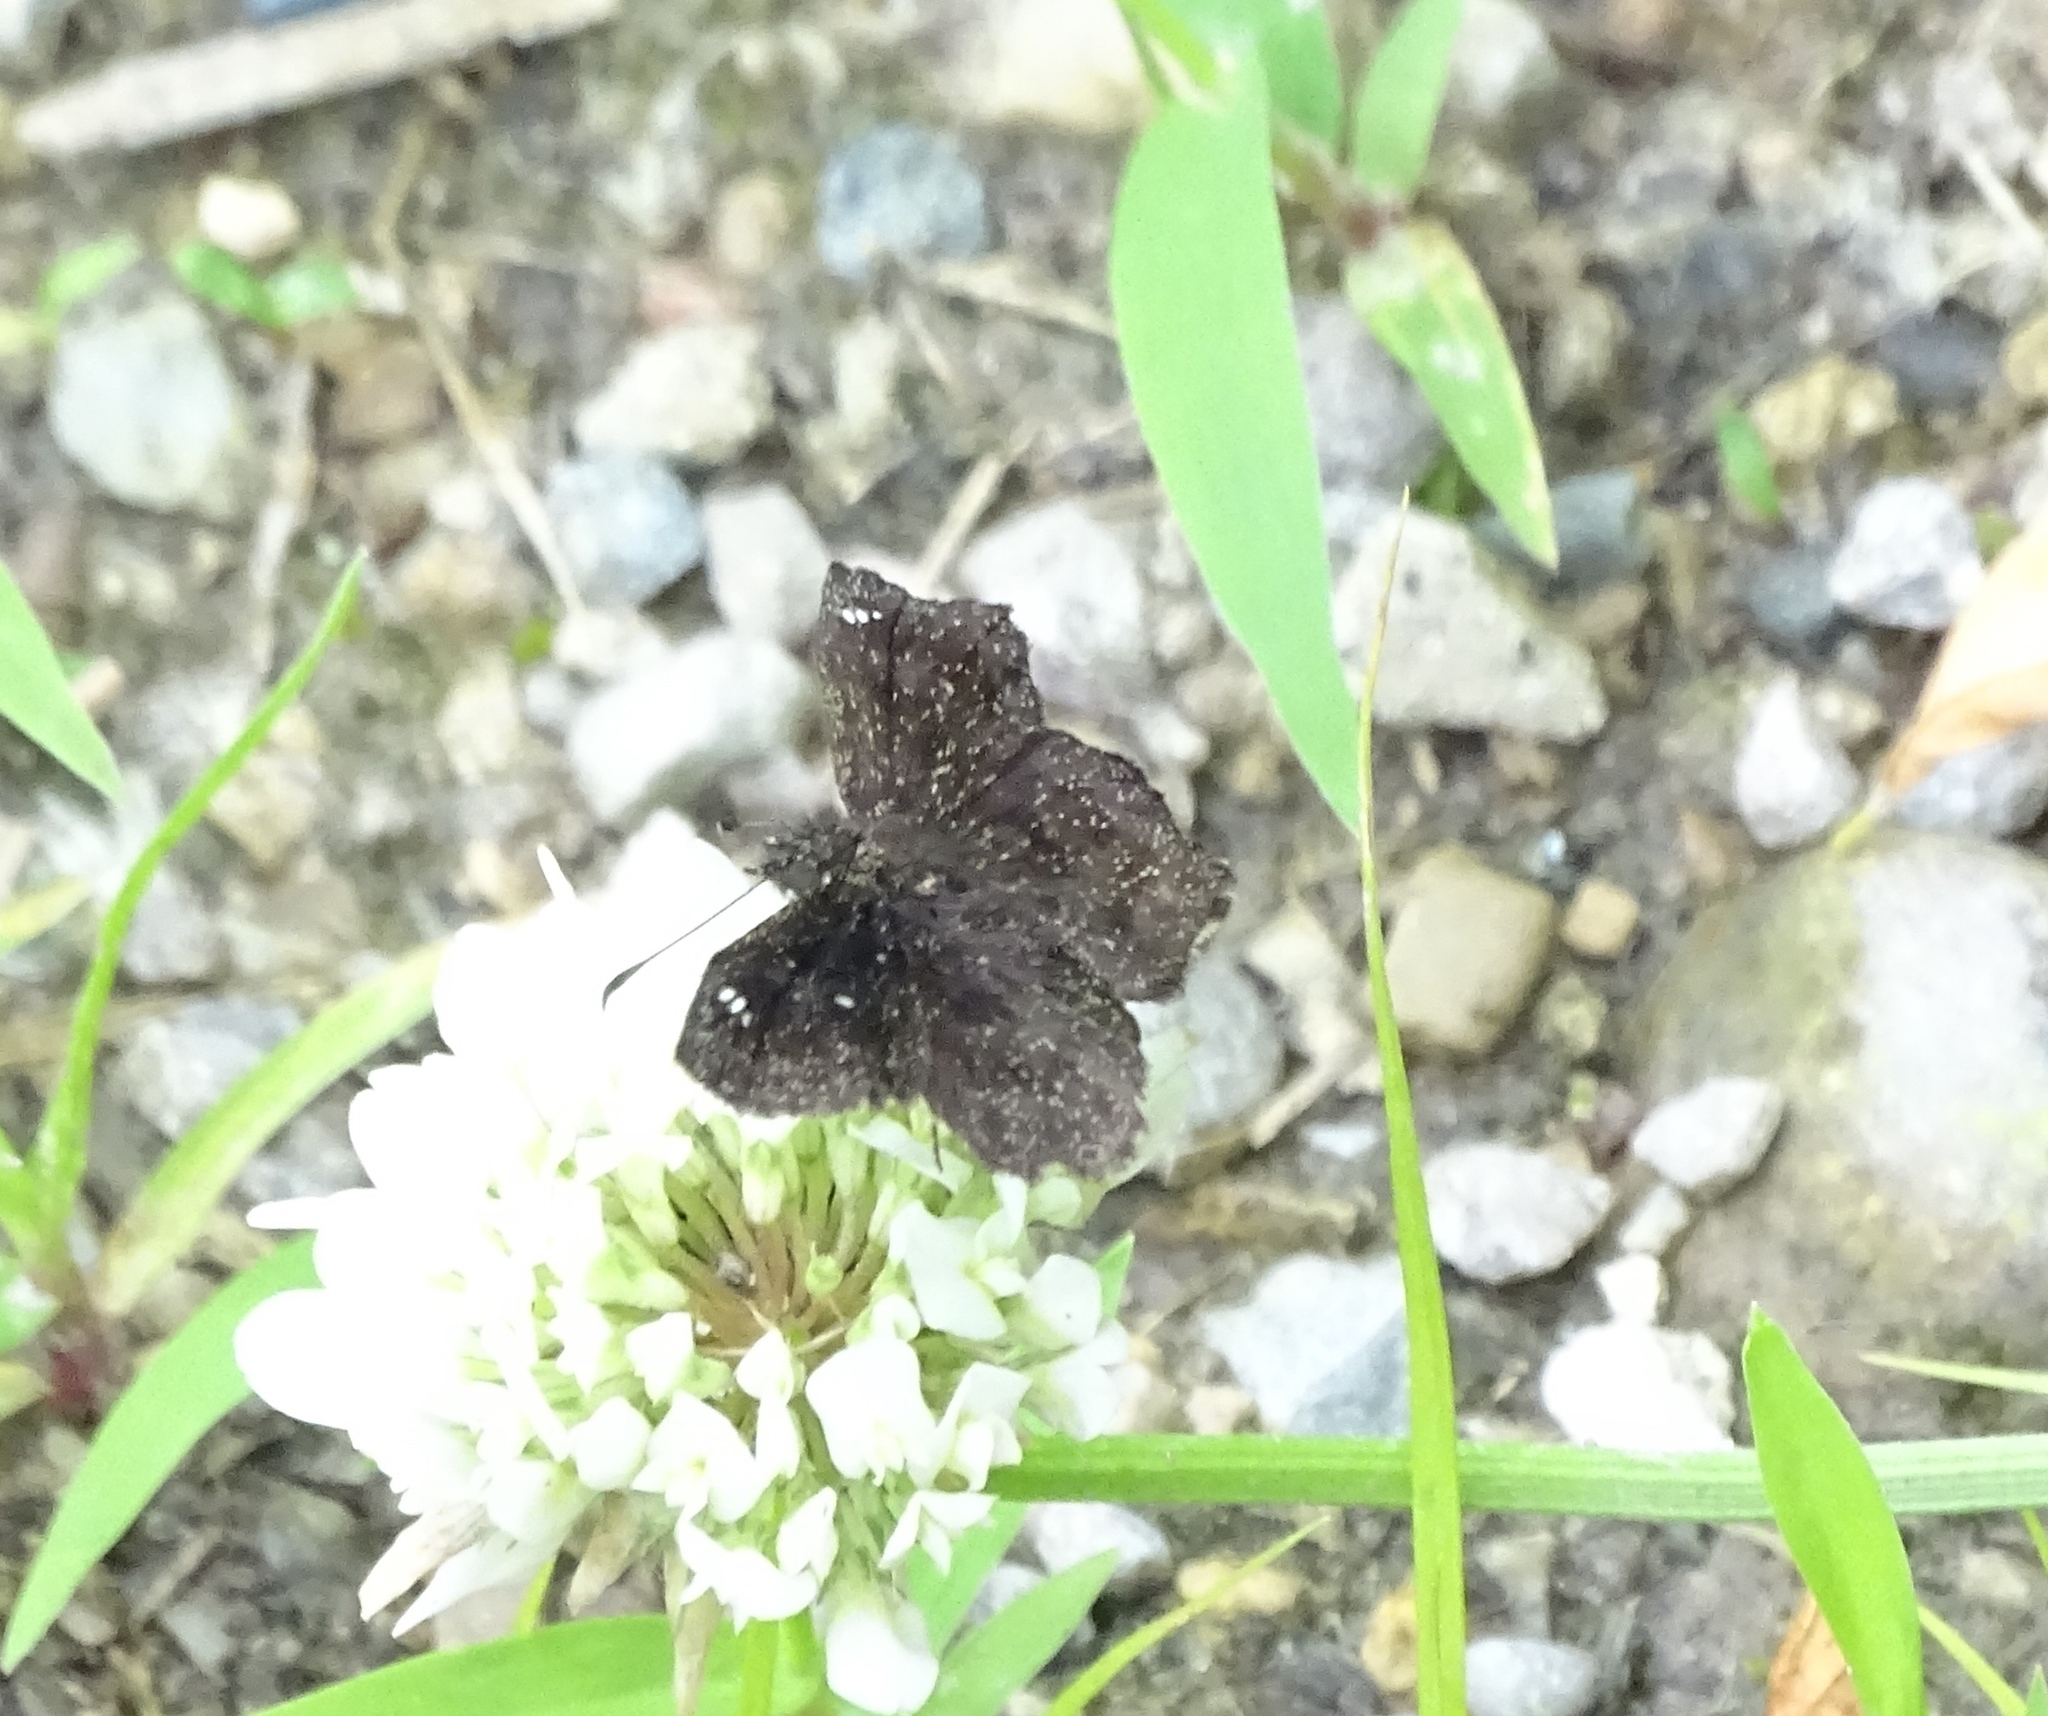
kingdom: Animalia
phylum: Arthropoda
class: Insecta
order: Lepidoptera
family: Hesperiidae
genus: Staphylus
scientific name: Staphylus mazans
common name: Mazans scallopwing
